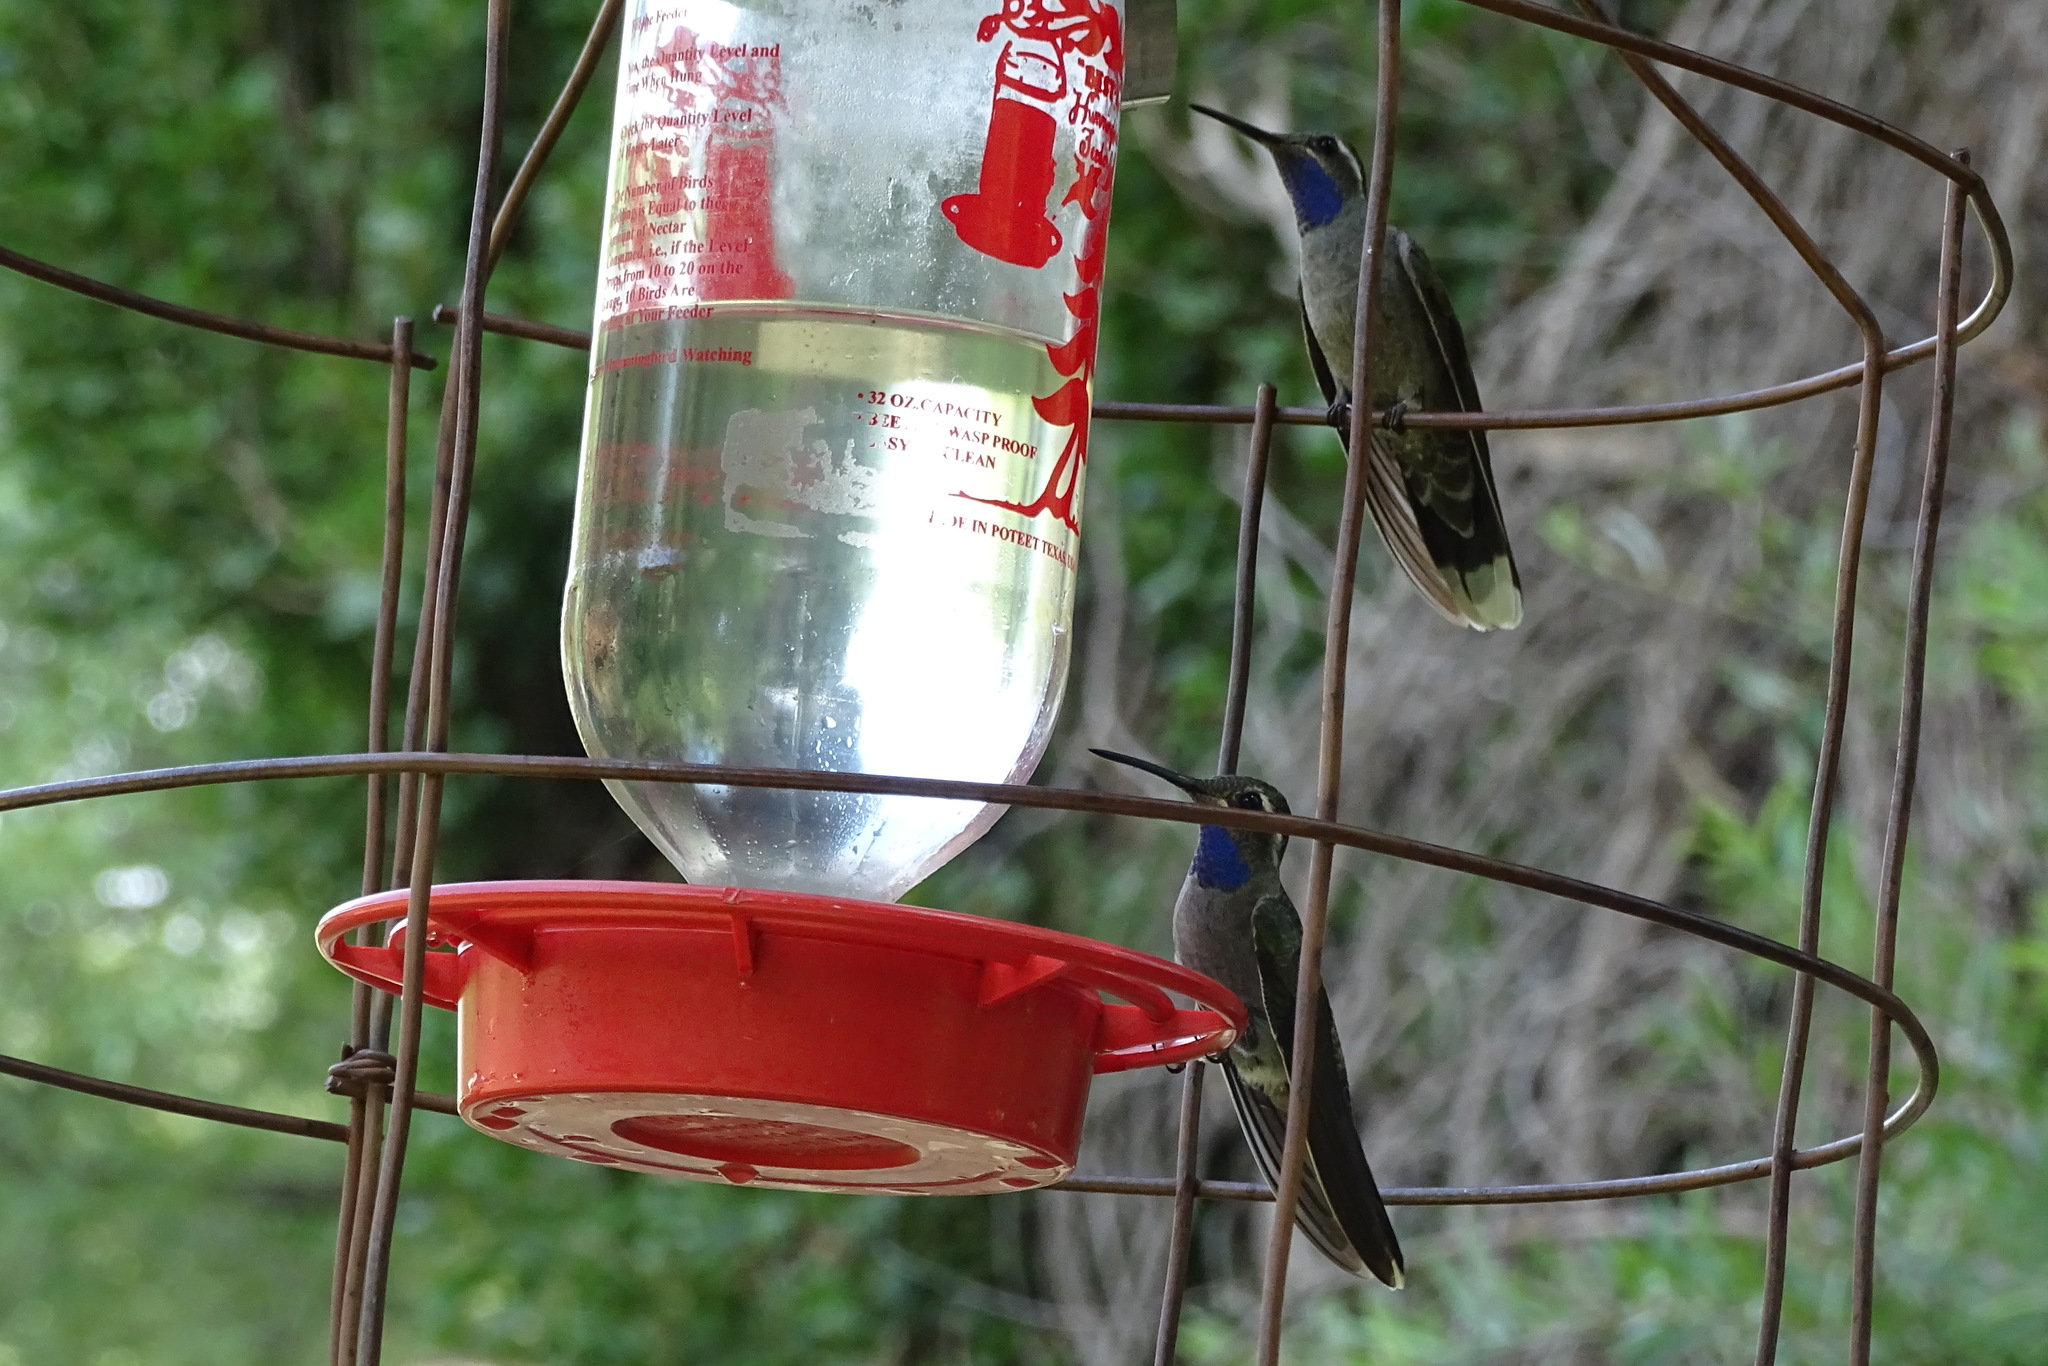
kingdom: Animalia
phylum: Chordata
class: Aves
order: Apodiformes
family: Trochilidae
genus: Lampornis
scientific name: Lampornis clemenciae
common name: Blue-throated mountaingem
